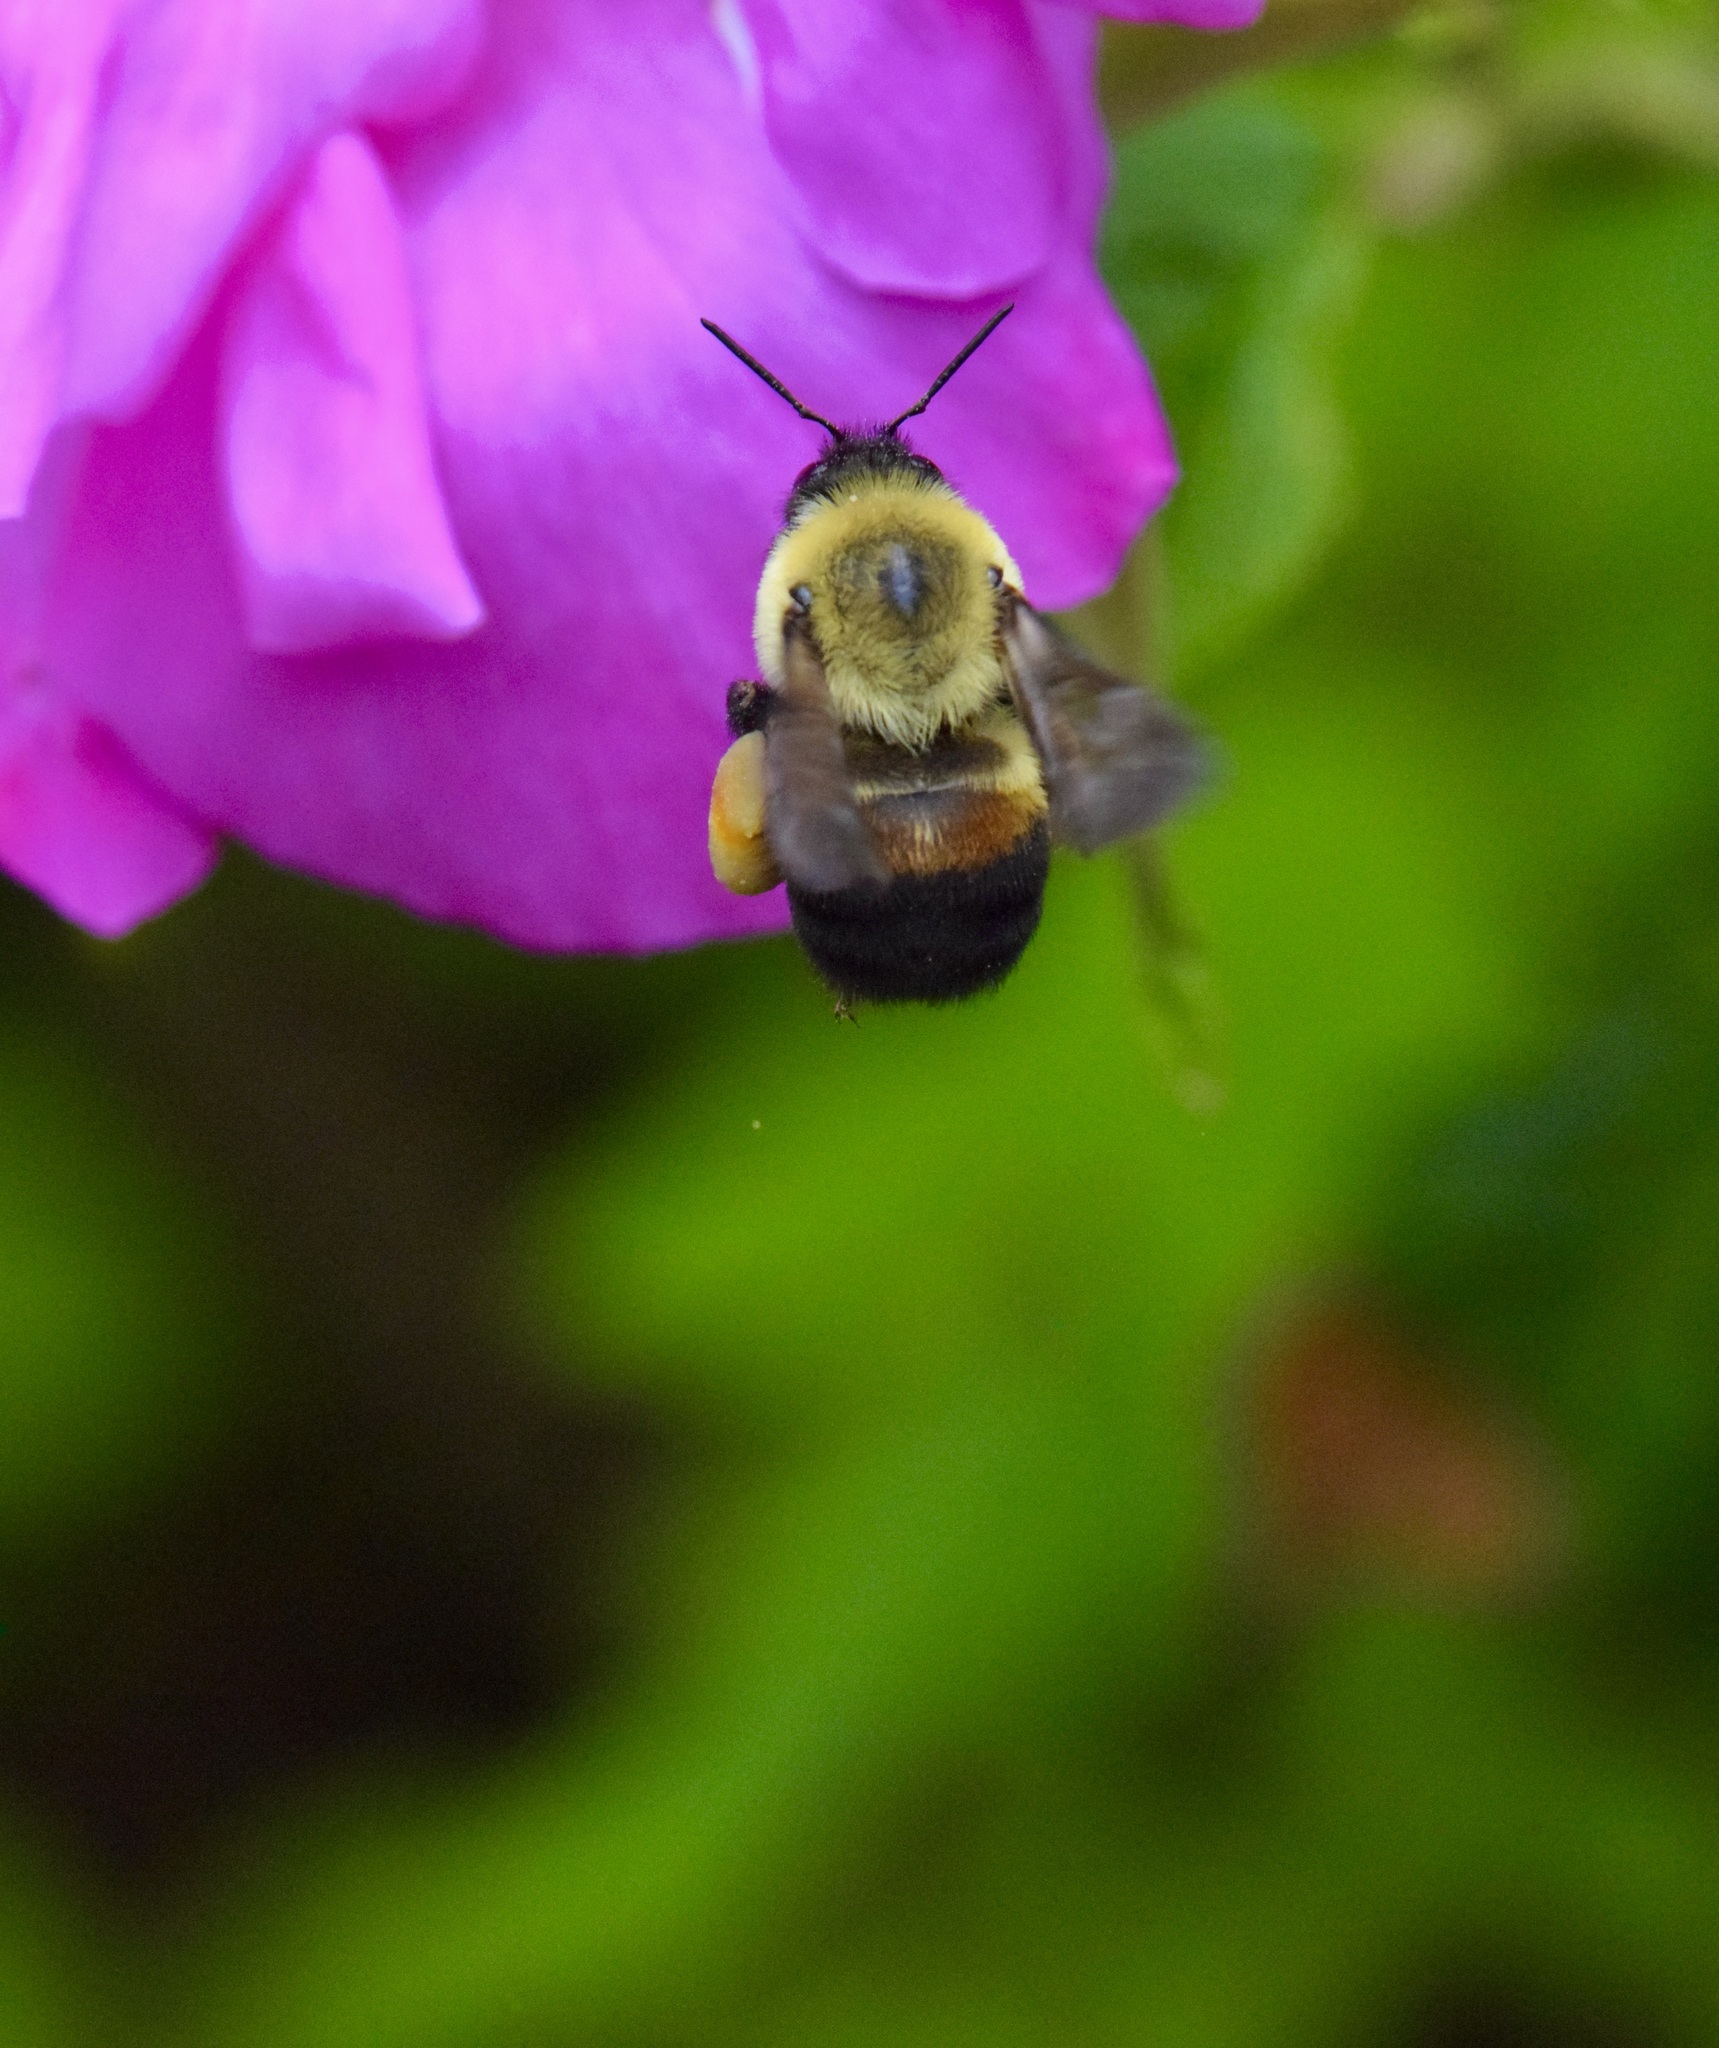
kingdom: Animalia
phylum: Arthropoda
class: Insecta
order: Hymenoptera
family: Apidae
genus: Bombus
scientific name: Bombus griseocollis
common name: Brown-belted bumble bee
